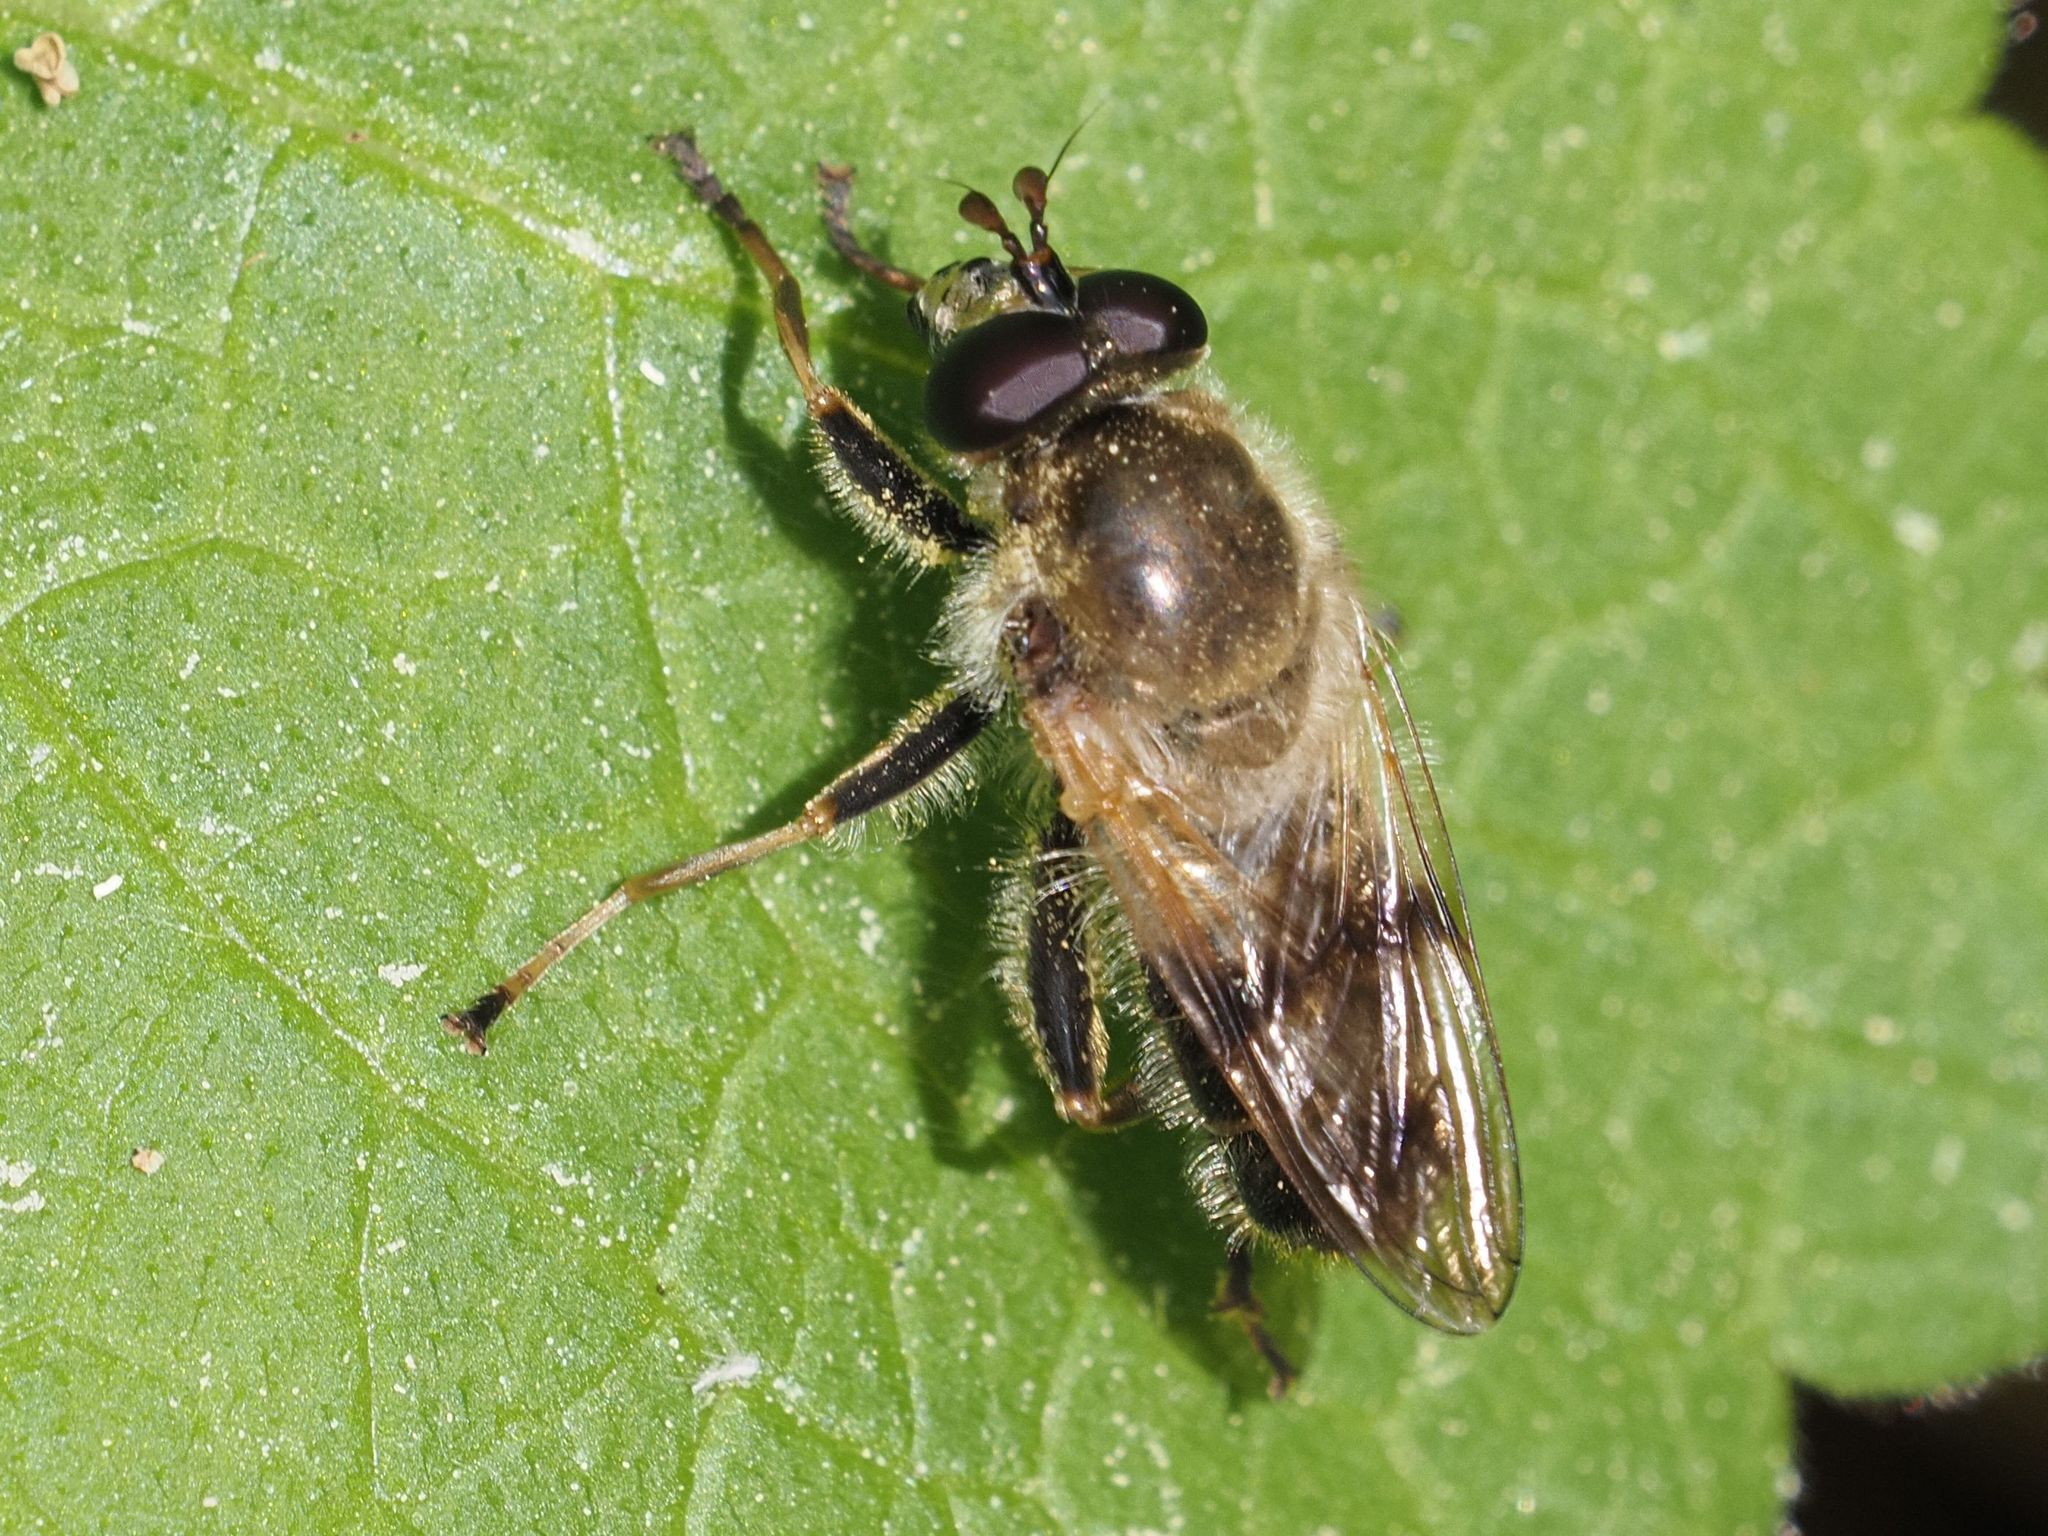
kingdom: Animalia
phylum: Arthropoda
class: Insecta
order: Diptera
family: Syrphidae
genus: Criorhina
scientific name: Criorhina asilica
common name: Pale-banded bear hoverfly
